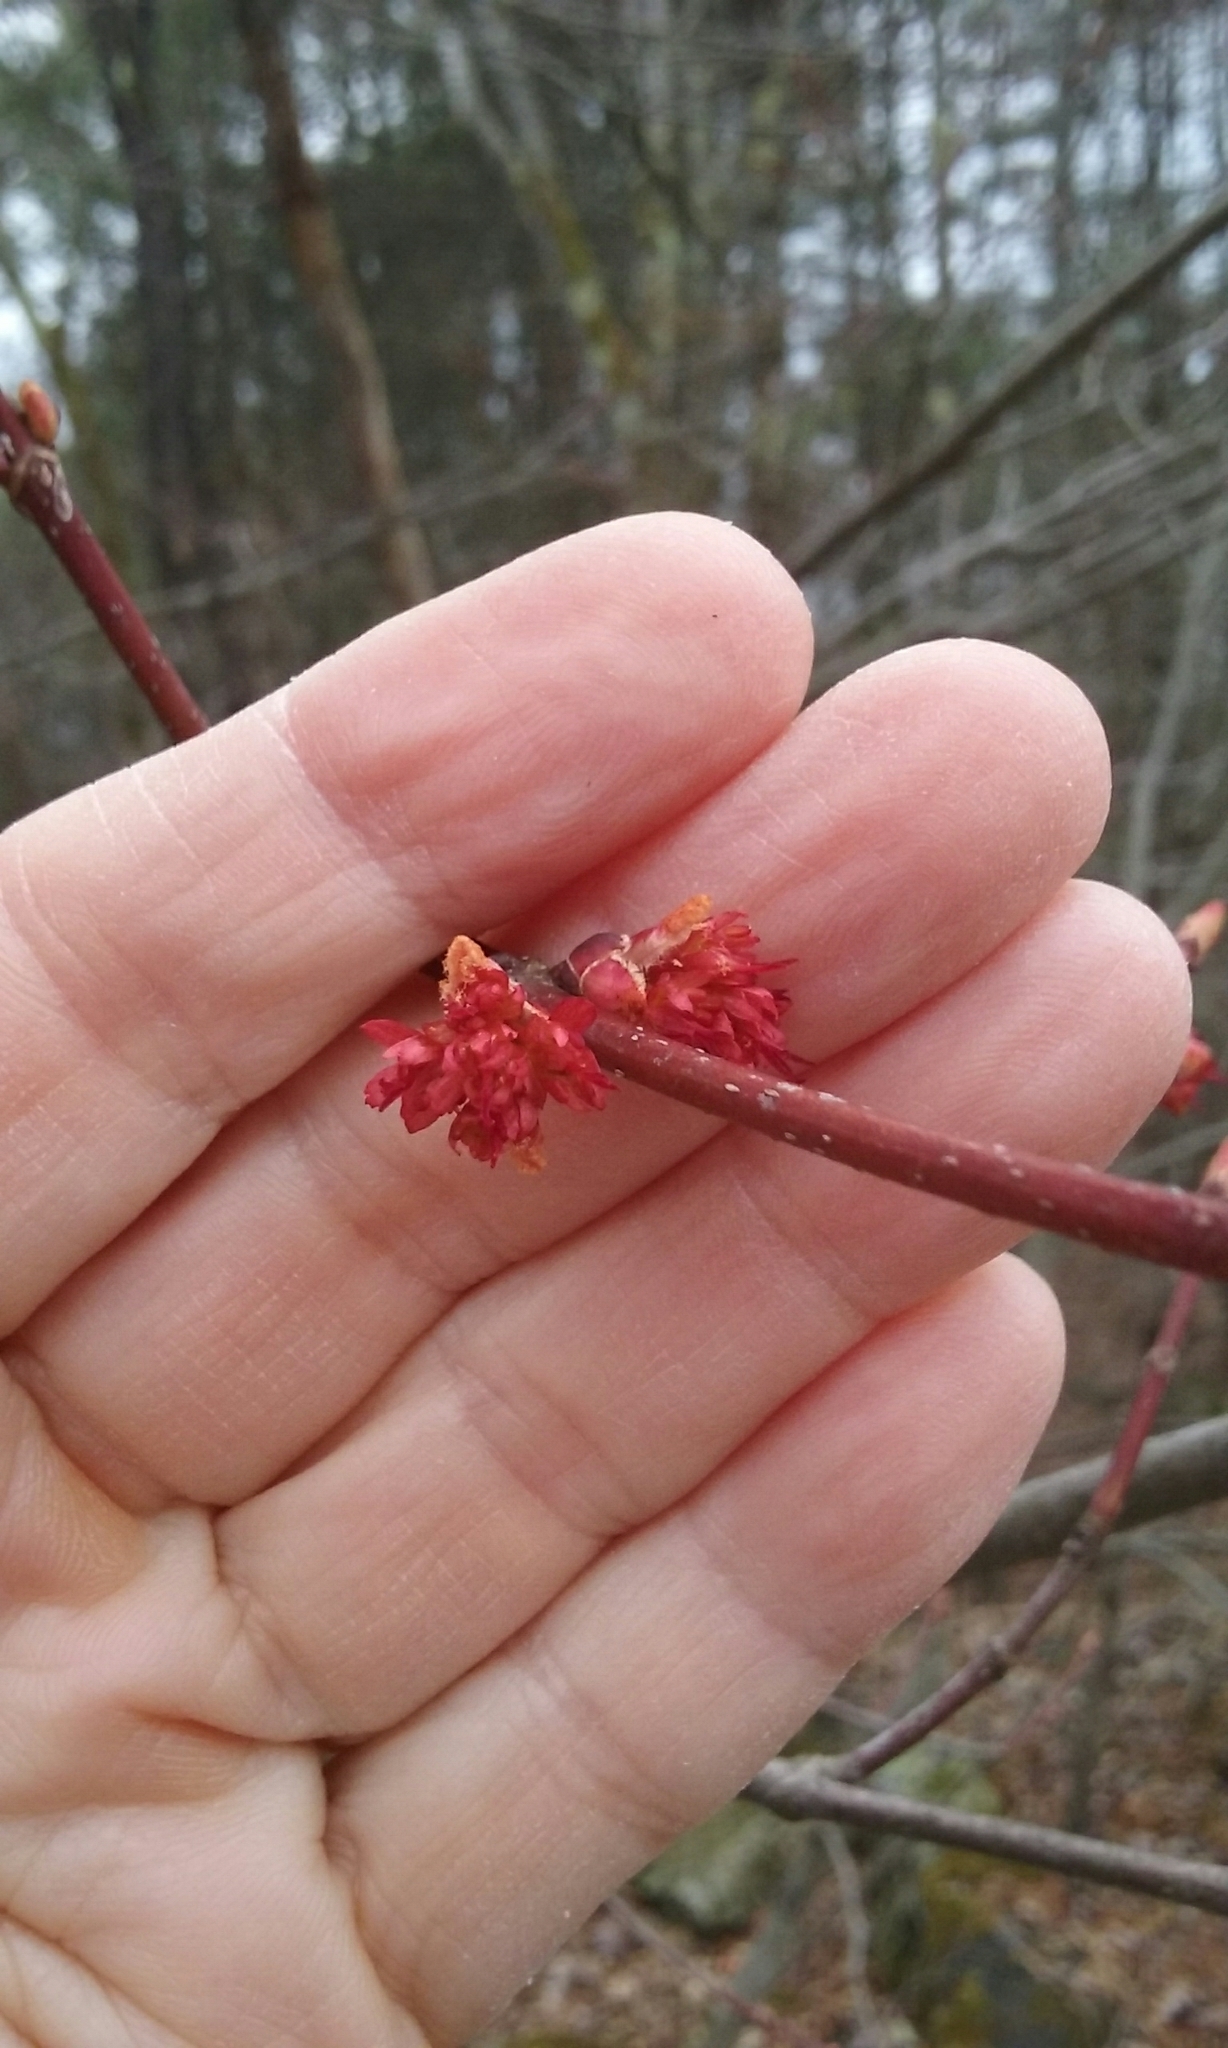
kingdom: Plantae
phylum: Tracheophyta
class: Magnoliopsida
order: Sapindales
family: Sapindaceae
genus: Acer
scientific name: Acer rubrum
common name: Red maple
